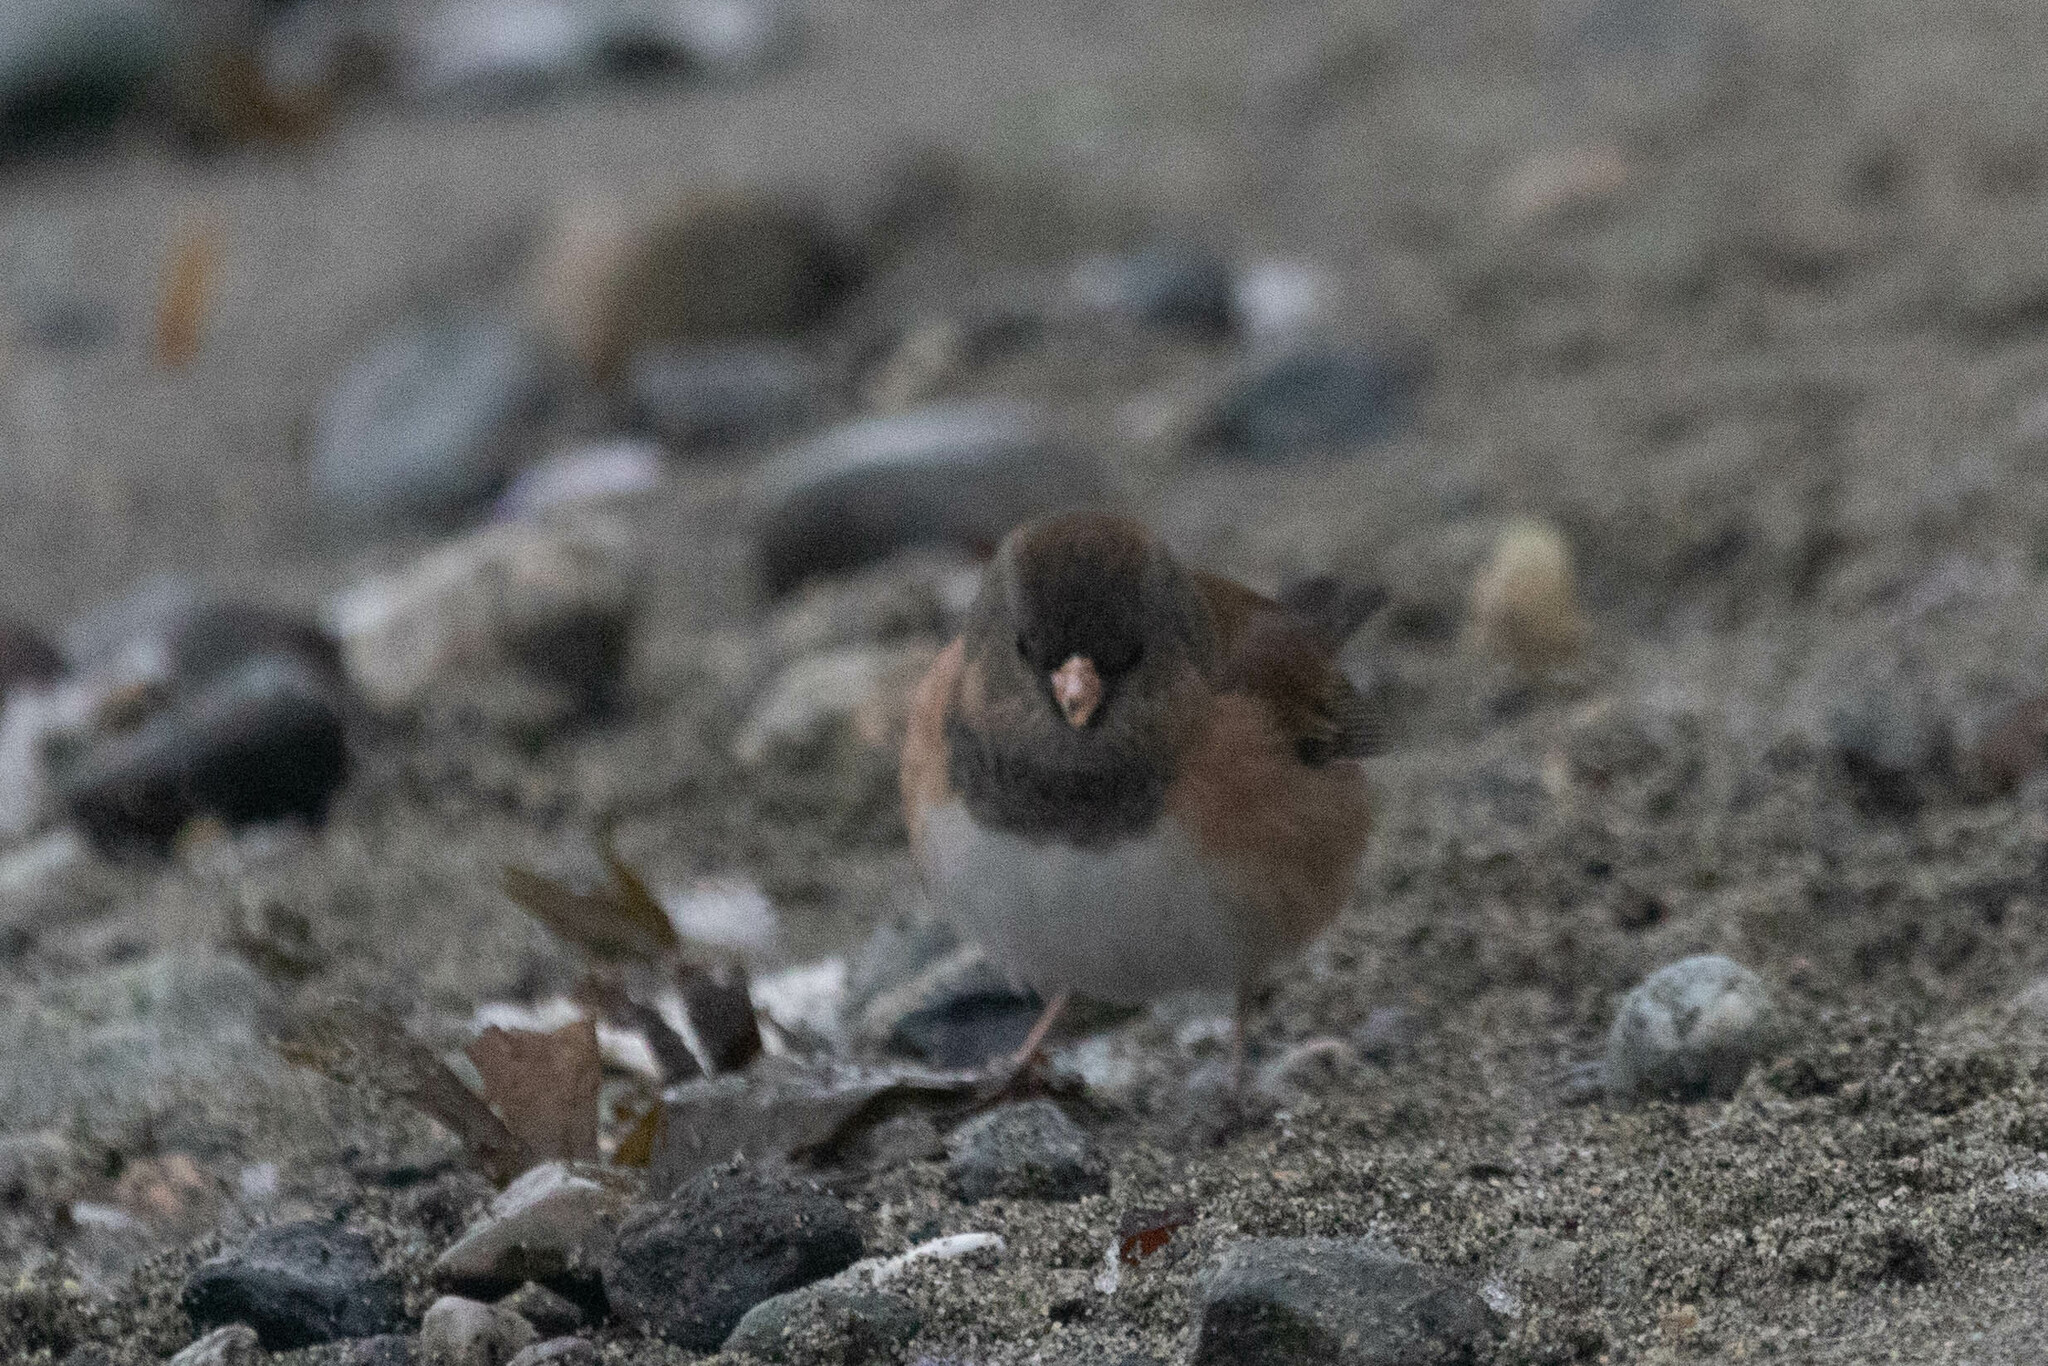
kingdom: Animalia
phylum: Chordata
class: Aves
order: Passeriformes
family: Passerellidae
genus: Junco
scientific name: Junco hyemalis
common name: Dark-eyed junco
